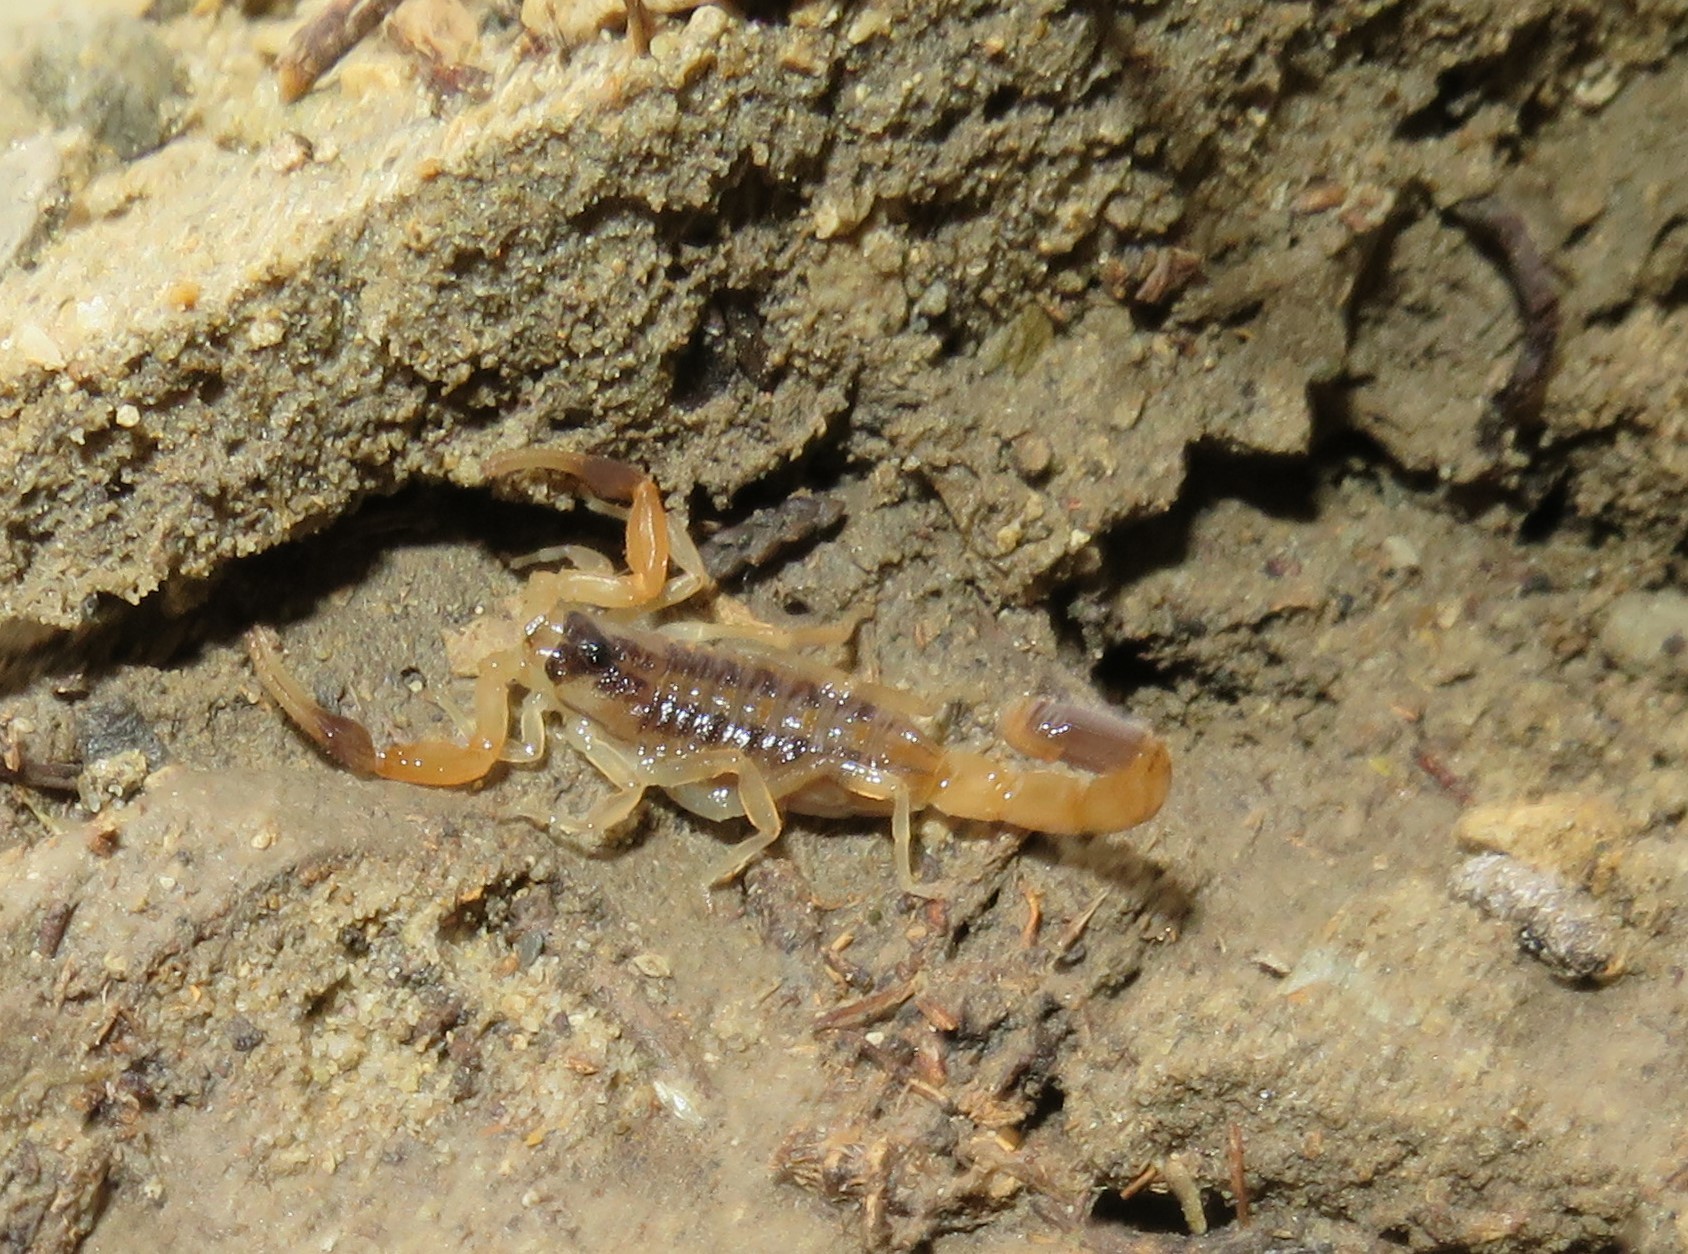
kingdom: Animalia
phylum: Arthropoda
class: Arachnida
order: Scorpiones
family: Buthidae
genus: Centruroides
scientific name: Centruroides vittatus
